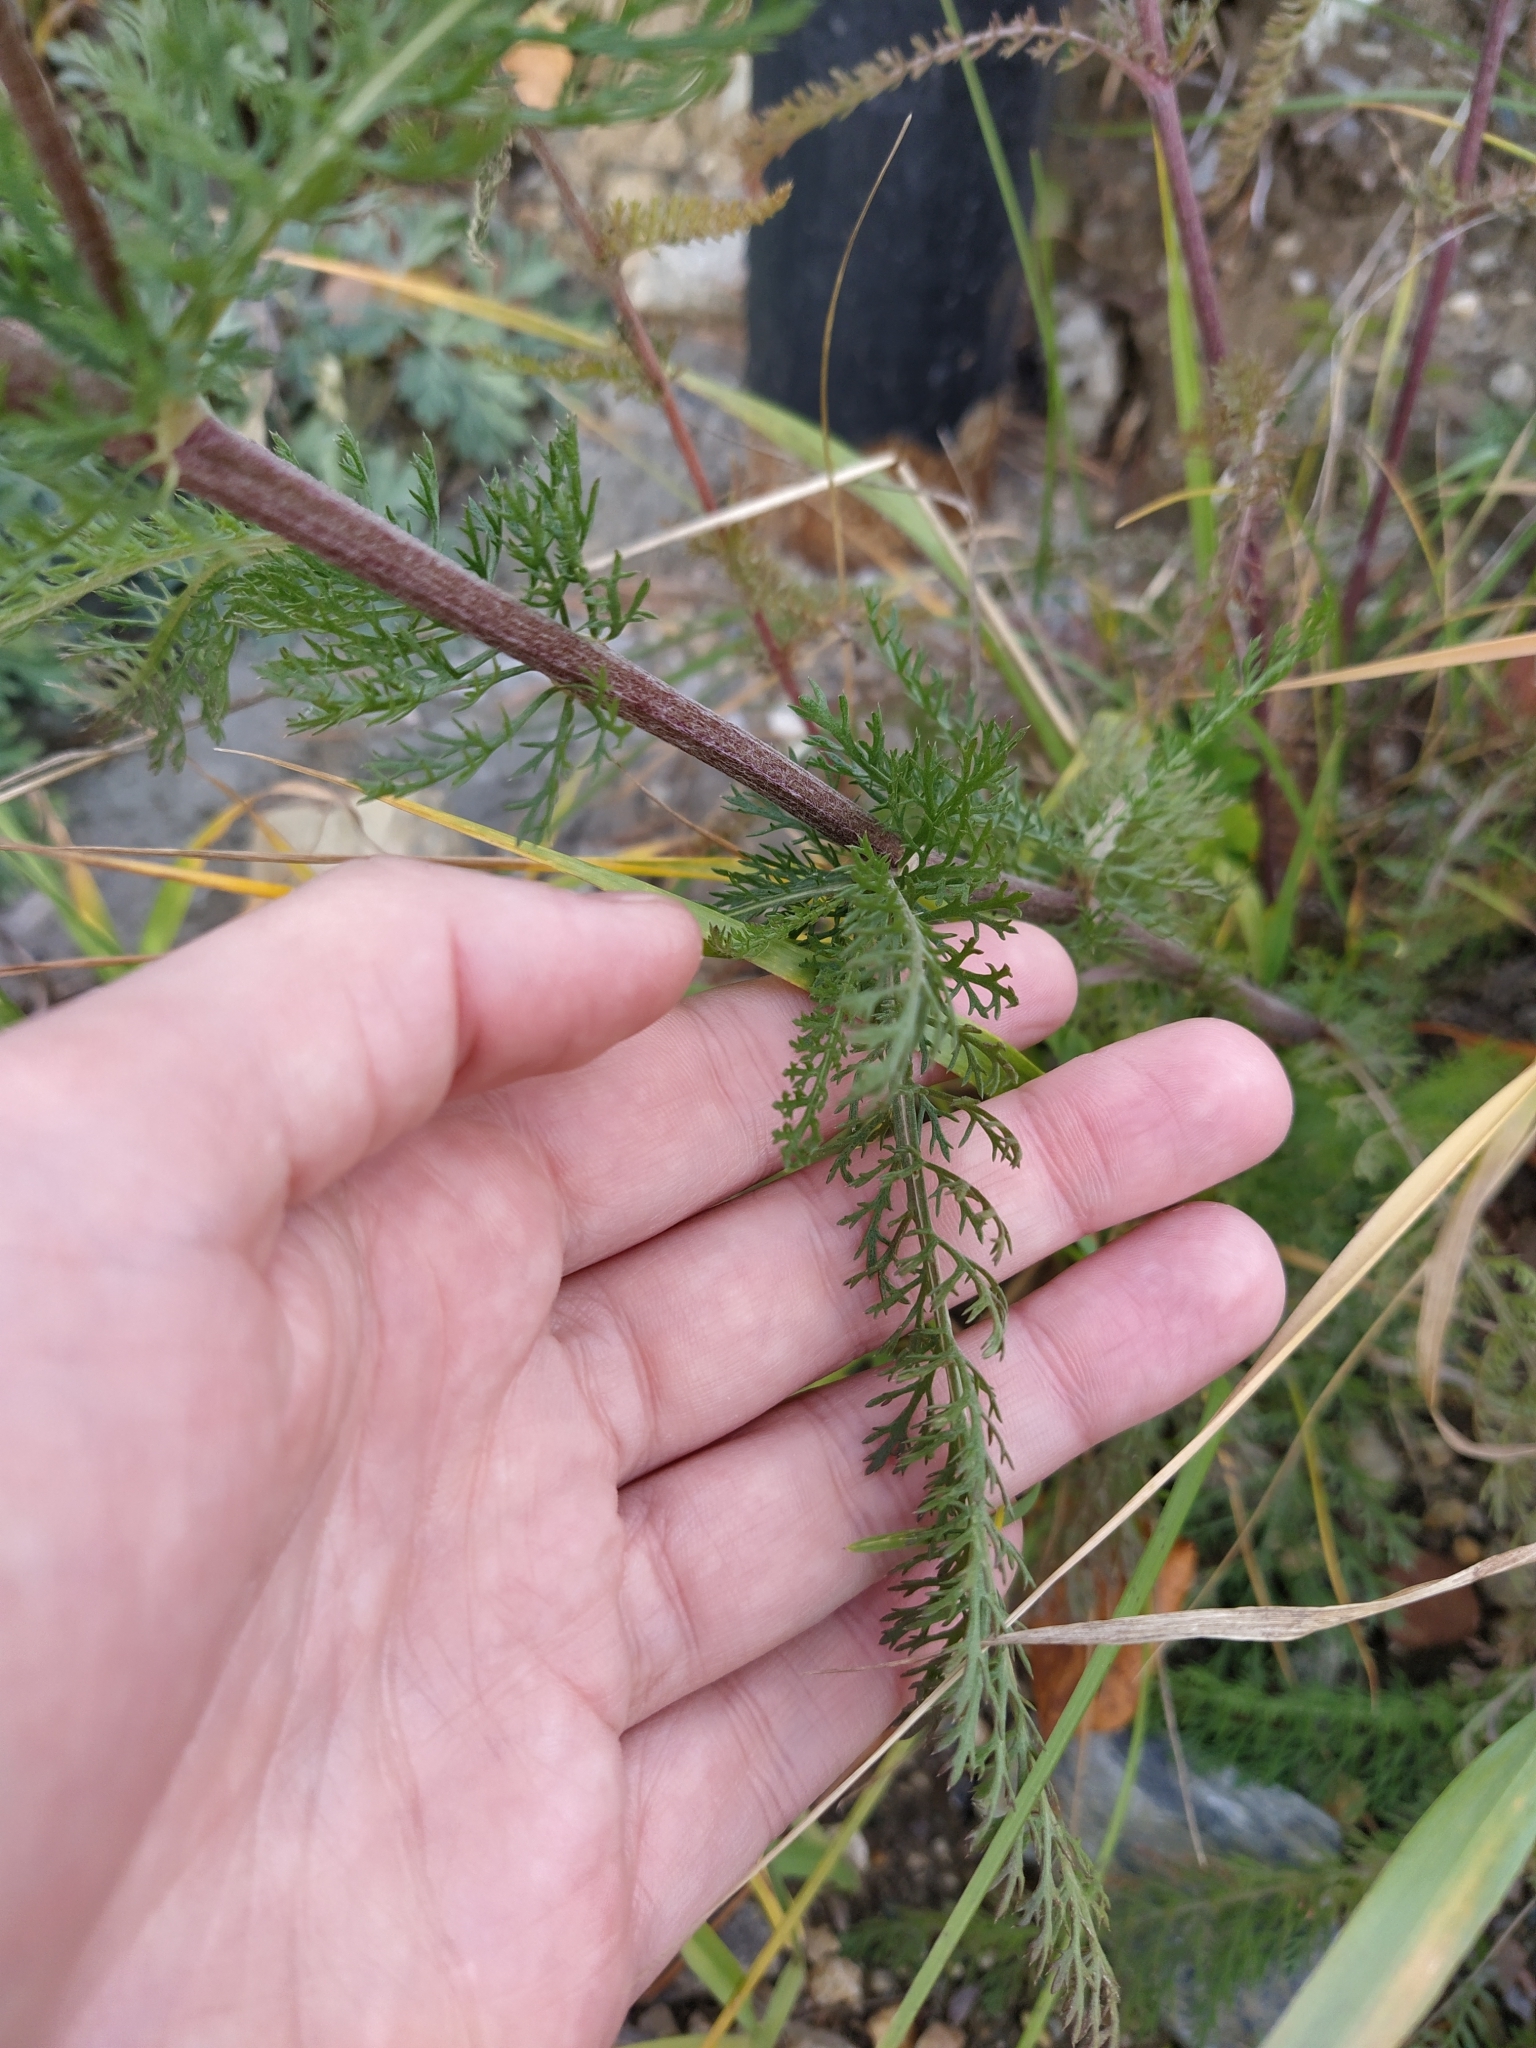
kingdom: Plantae
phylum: Tracheophyta
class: Magnoliopsida
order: Asterales
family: Asteraceae
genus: Achillea
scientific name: Achillea asiatica
